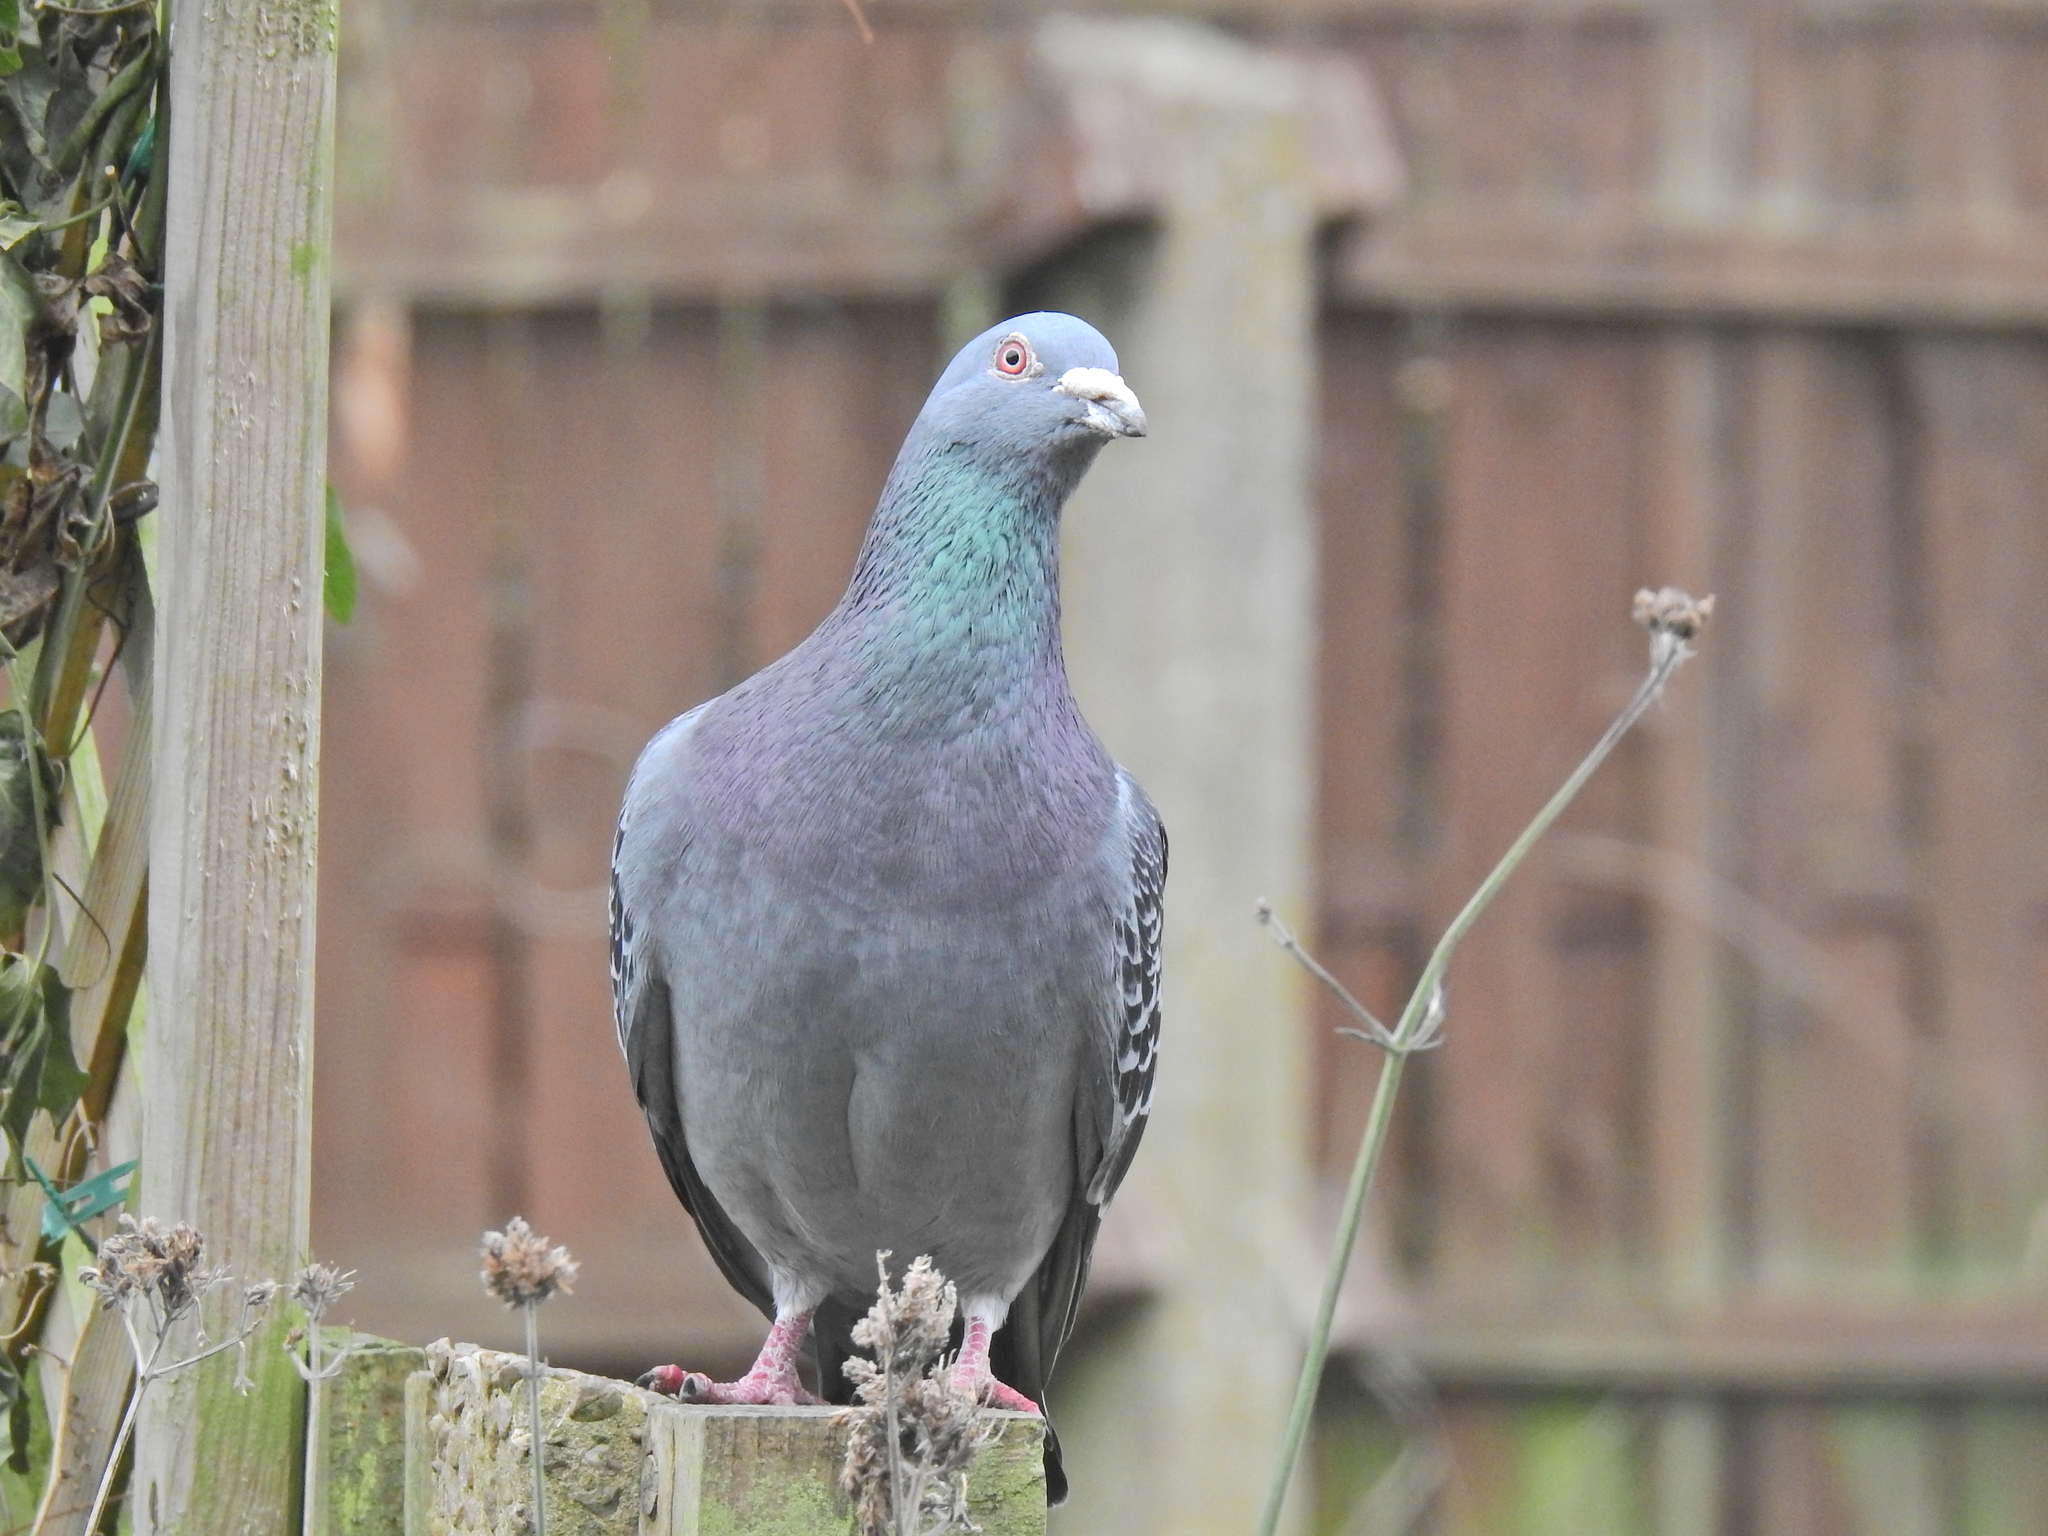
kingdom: Animalia
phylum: Chordata
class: Aves
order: Columbiformes
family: Columbidae
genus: Columba
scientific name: Columba livia
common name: Rock pigeon
